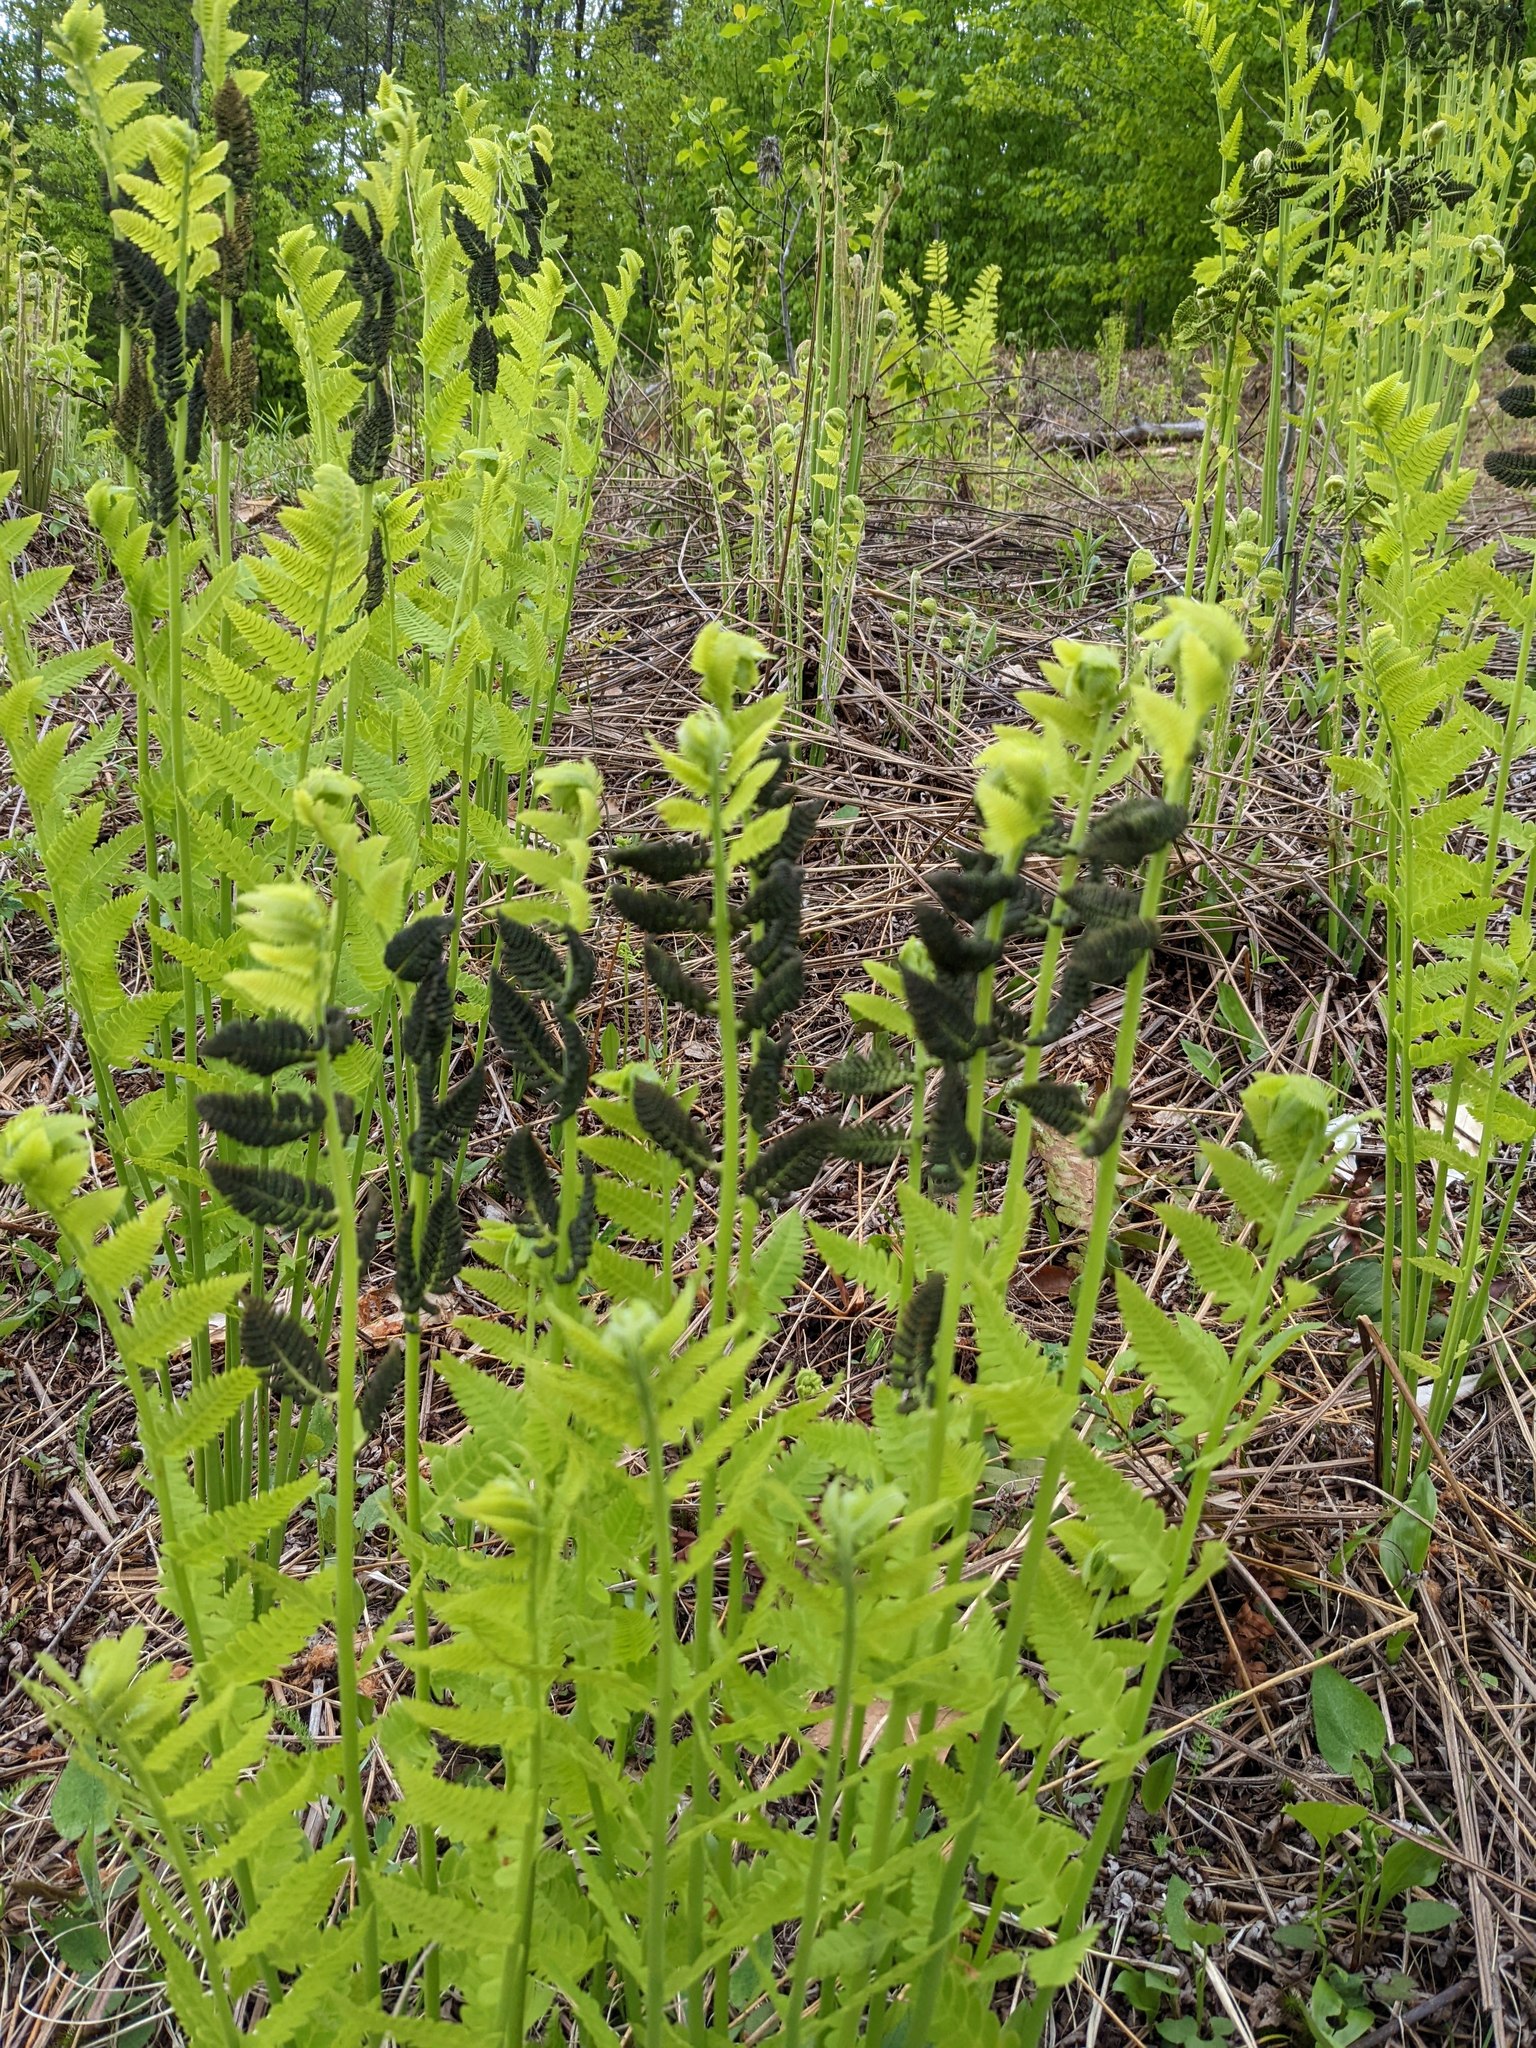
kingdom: Plantae
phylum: Tracheophyta
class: Polypodiopsida
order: Osmundales
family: Osmundaceae
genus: Claytosmunda
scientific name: Claytosmunda claytoniana
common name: Clayton's fern
